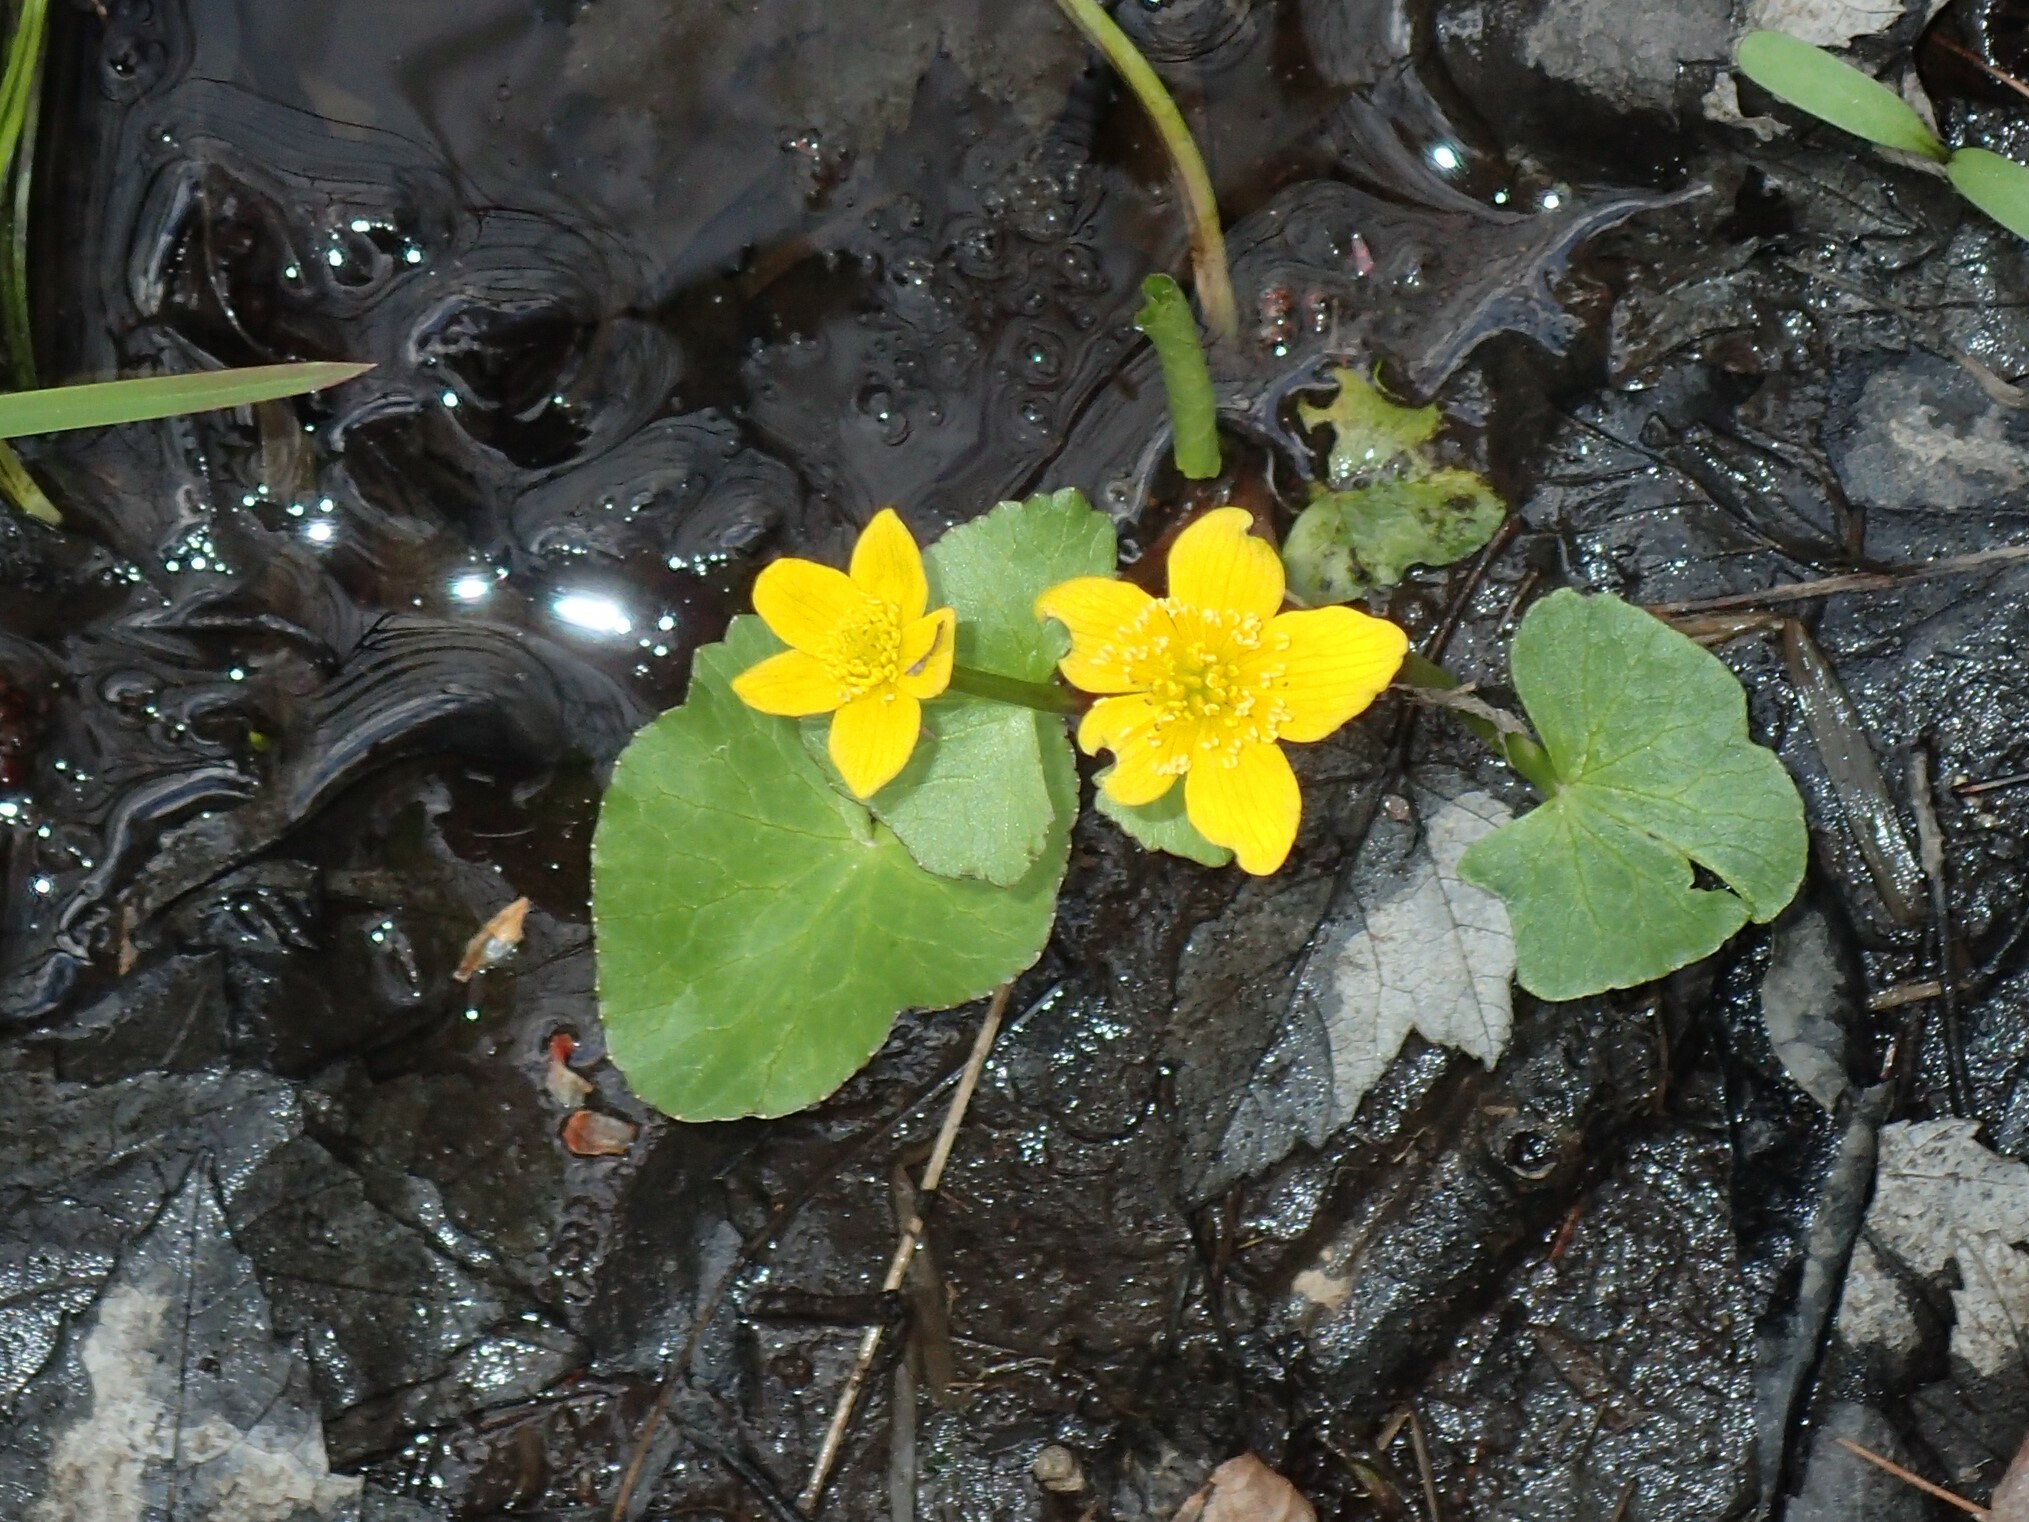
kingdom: Plantae
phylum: Tracheophyta
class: Magnoliopsida
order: Ranunculales
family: Ranunculaceae
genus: Caltha
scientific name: Caltha palustris
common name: Marsh marigold
